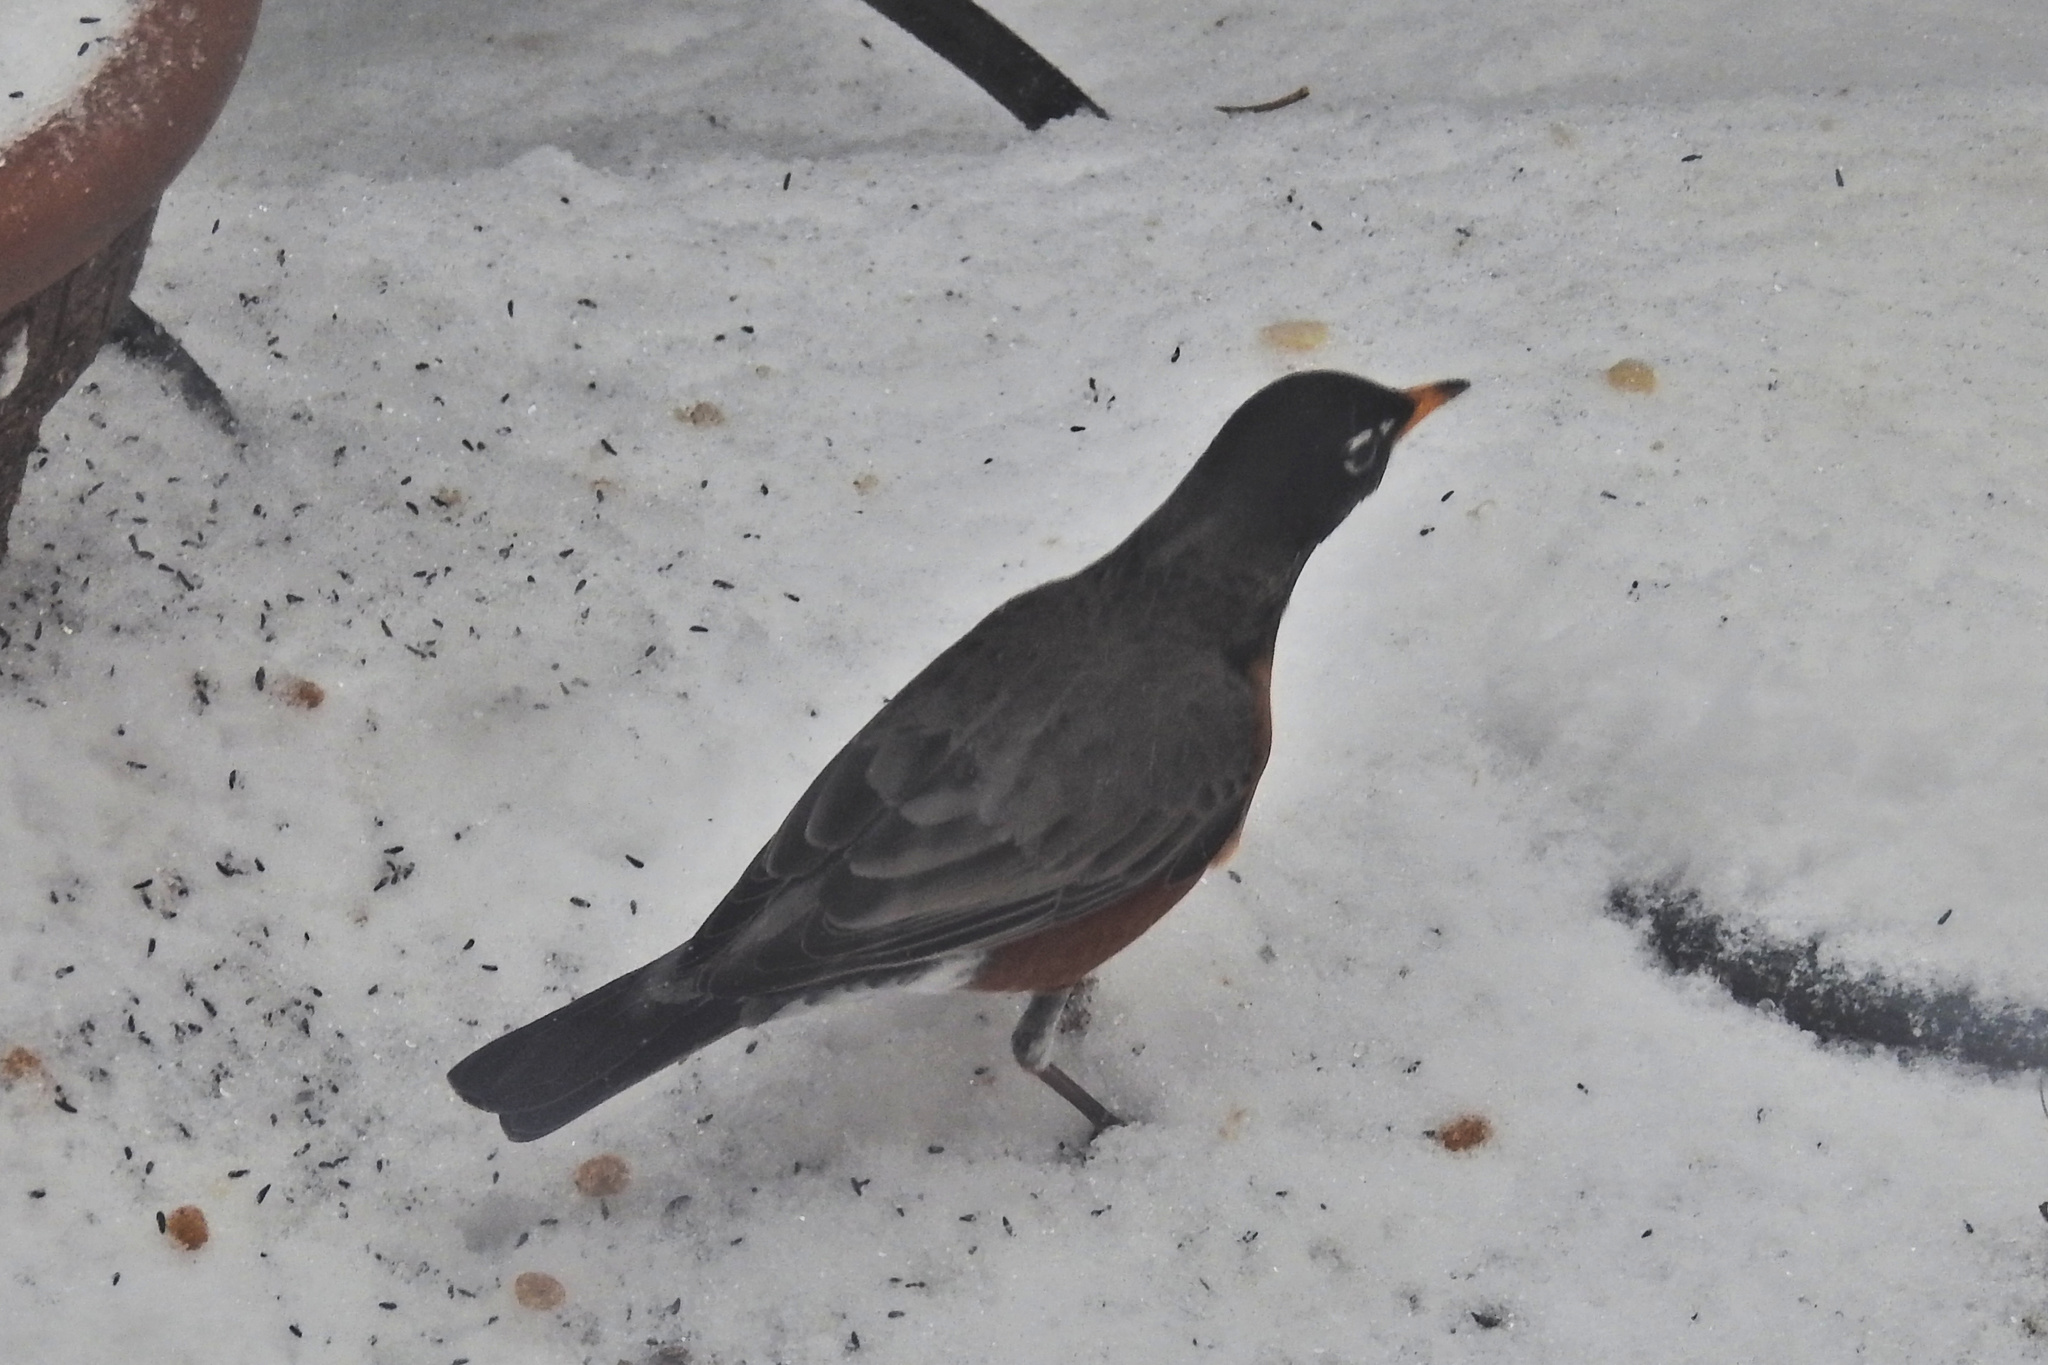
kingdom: Animalia
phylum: Chordata
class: Aves
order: Passeriformes
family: Turdidae
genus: Turdus
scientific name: Turdus migratorius
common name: American robin
